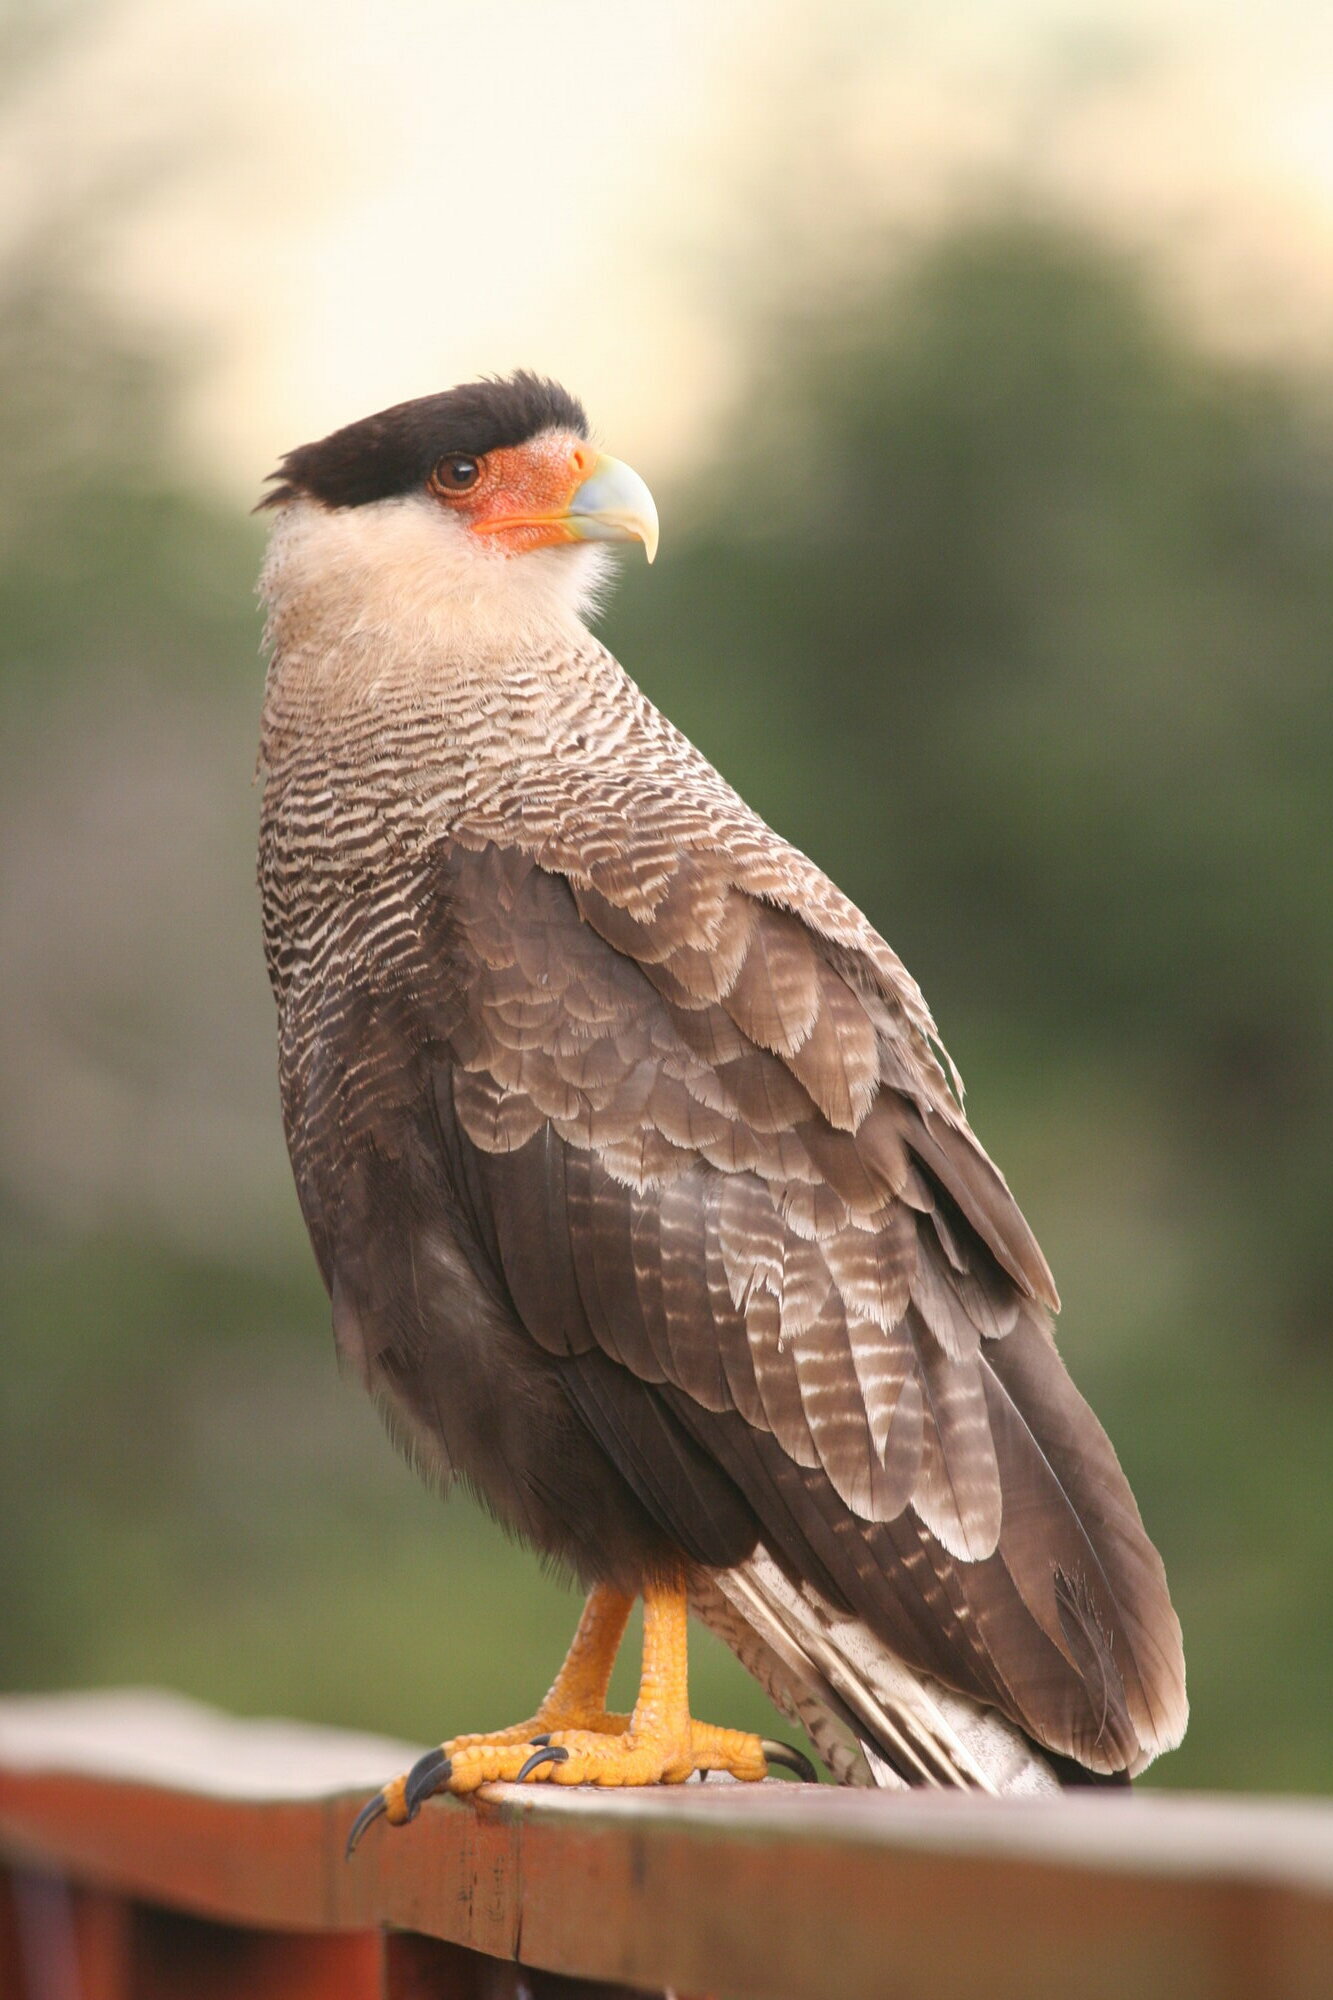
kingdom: Animalia
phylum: Chordata
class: Aves
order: Falconiformes
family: Falconidae
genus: Caracara
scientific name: Caracara plancus
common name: Southern caracara
